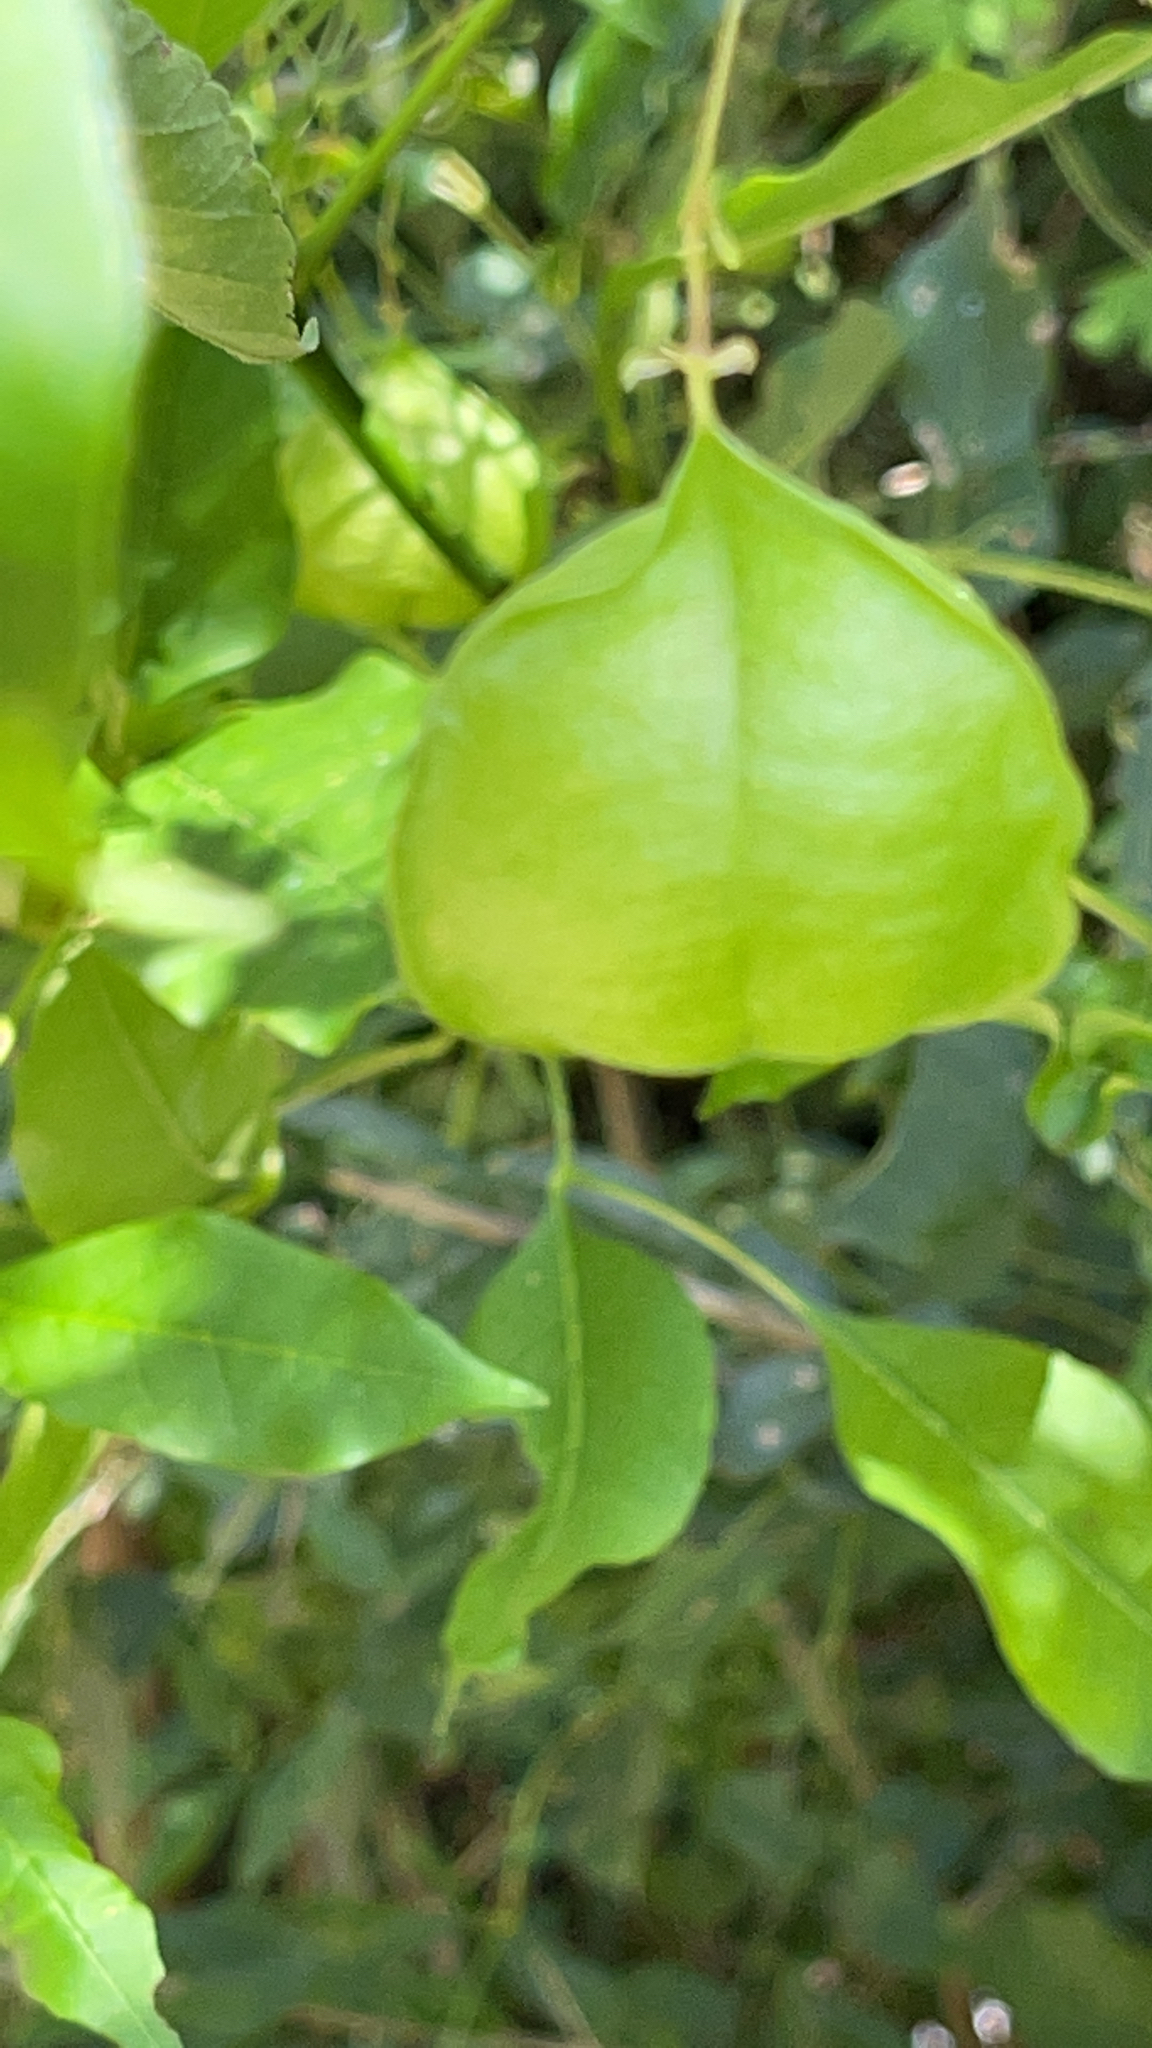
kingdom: Plantae
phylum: Tracheophyta
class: Magnoliopsida
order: Sapindales
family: Sapindaceae
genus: Cardiospermum
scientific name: Cardiospermum halicacabum
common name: Balloon vine
